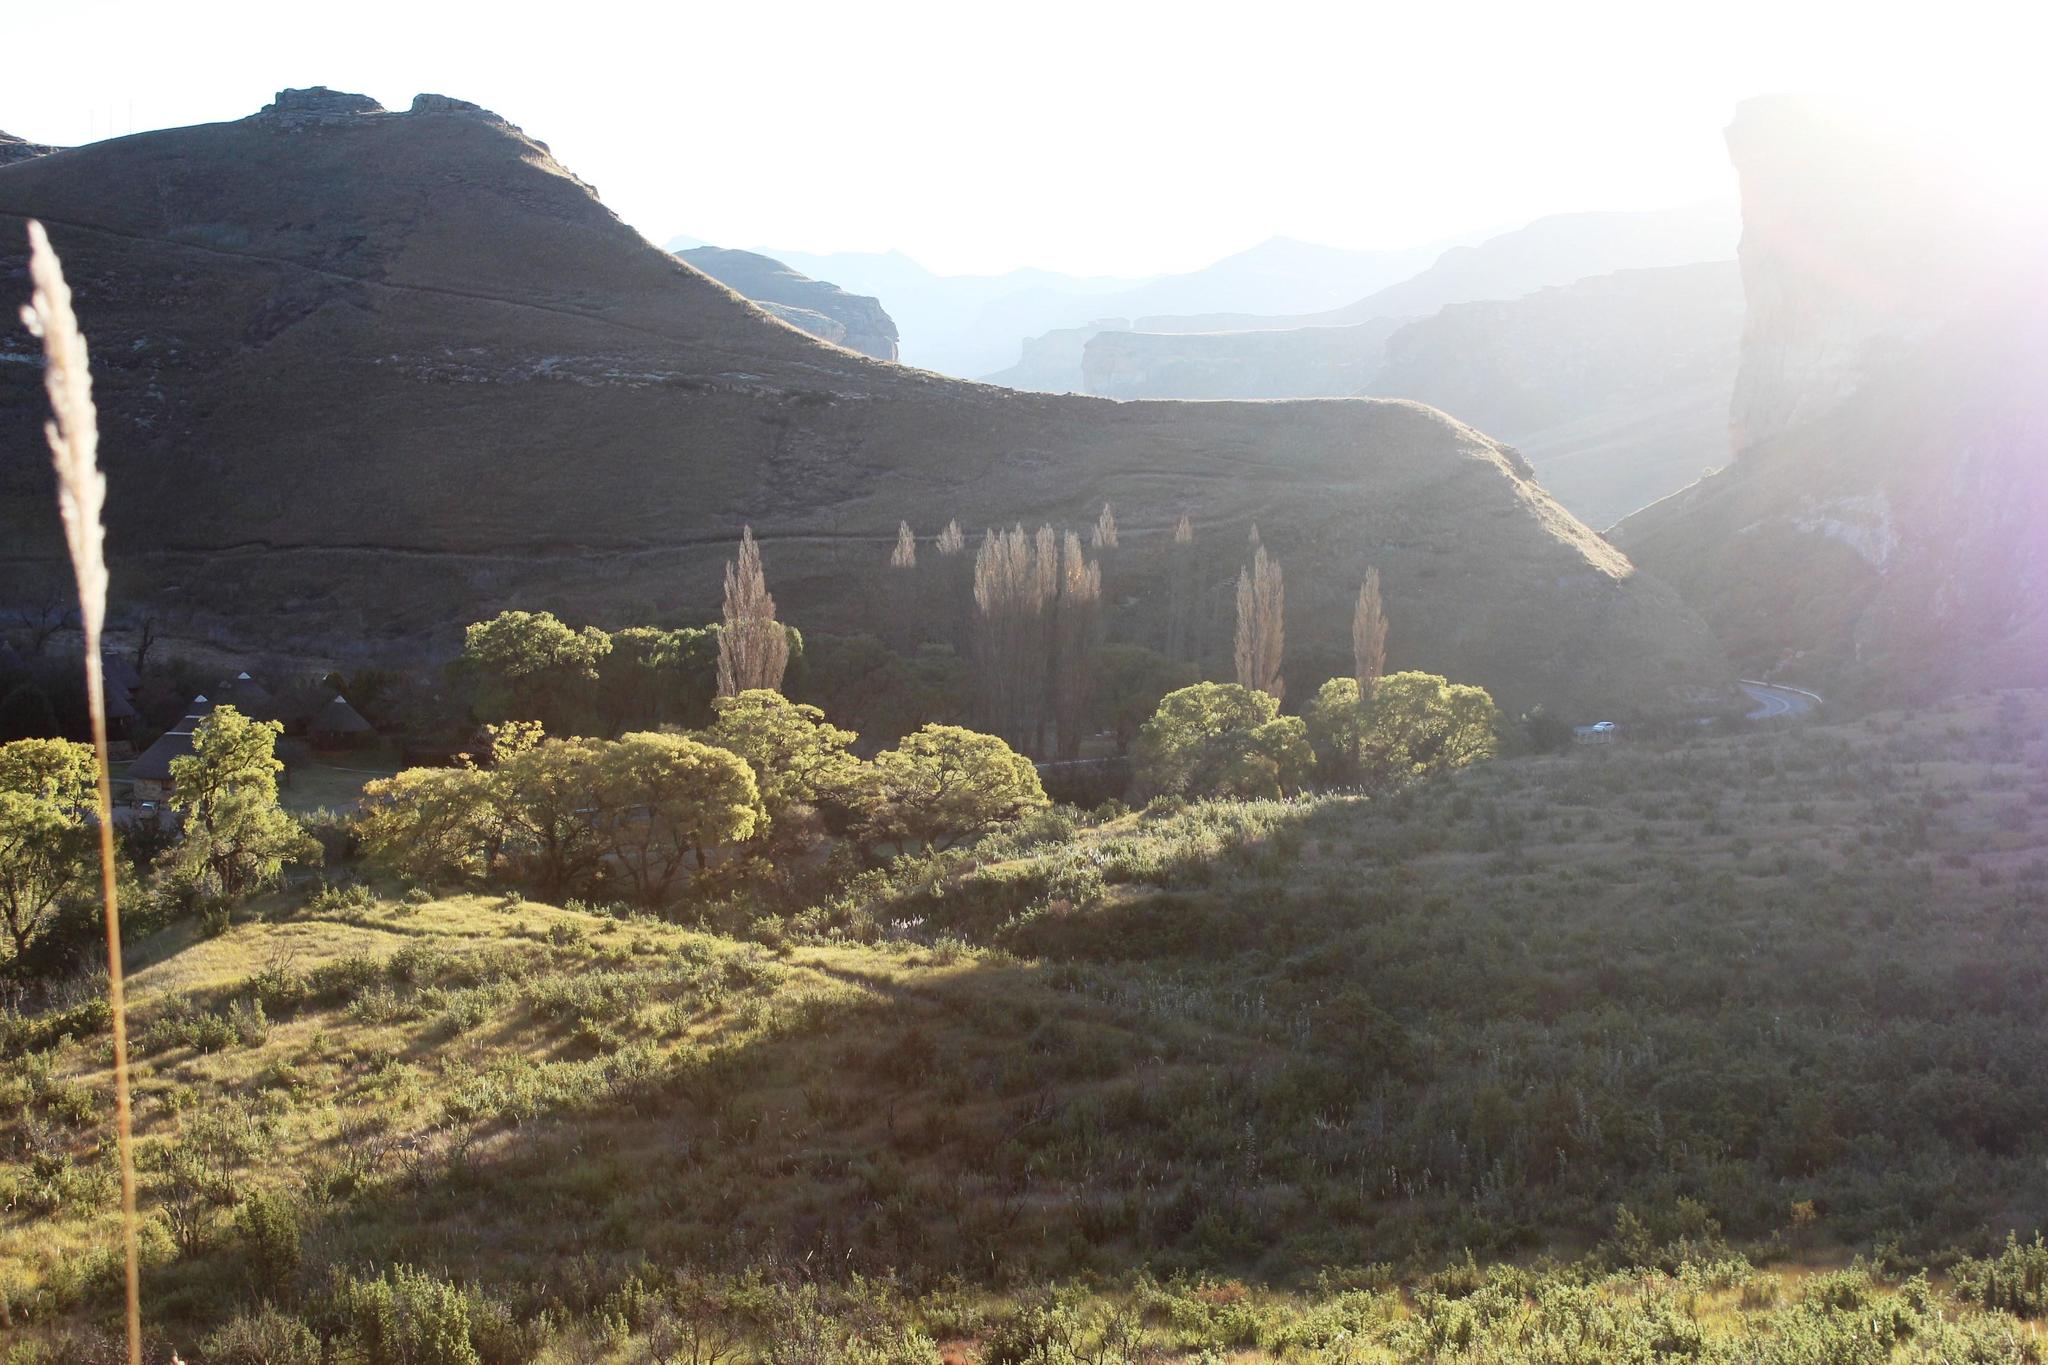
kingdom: Plantae
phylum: Tracheophyta
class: Magnoliopsida
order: Malpighiales
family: Salicaceae
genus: Populus
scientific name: Populus nigra
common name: Black poplar
